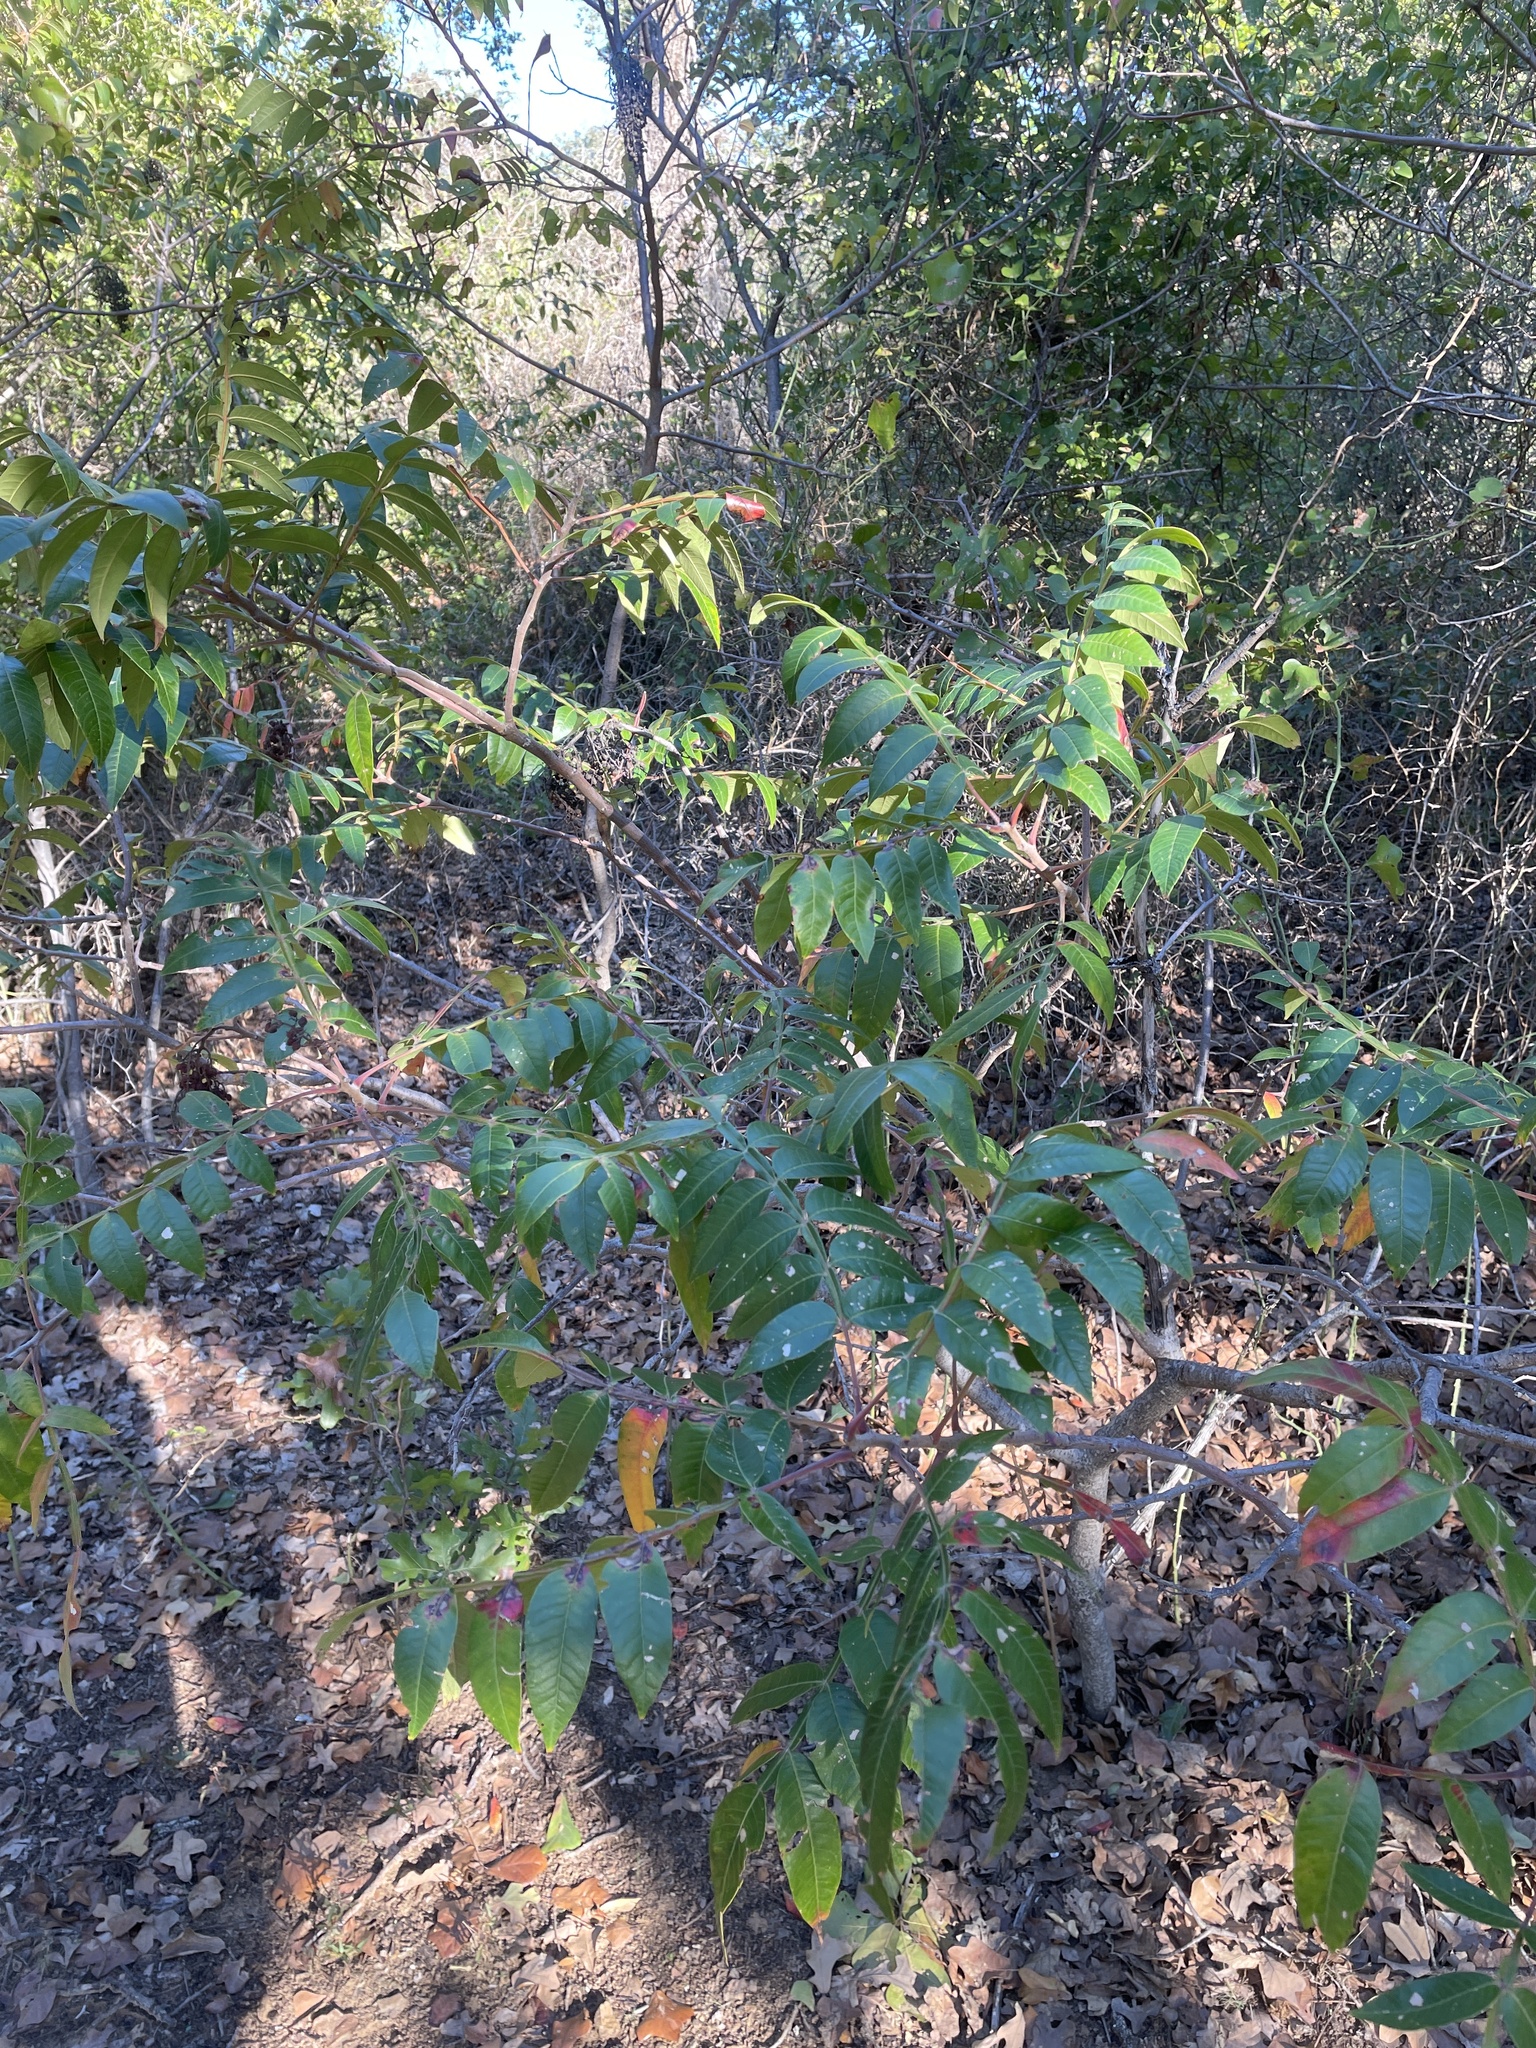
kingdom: Plantae
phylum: Tracheophyta
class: Magnoliopsida
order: Sapindales
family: Anacardiaceae
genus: Rhus
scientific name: Rhus lanceolata
